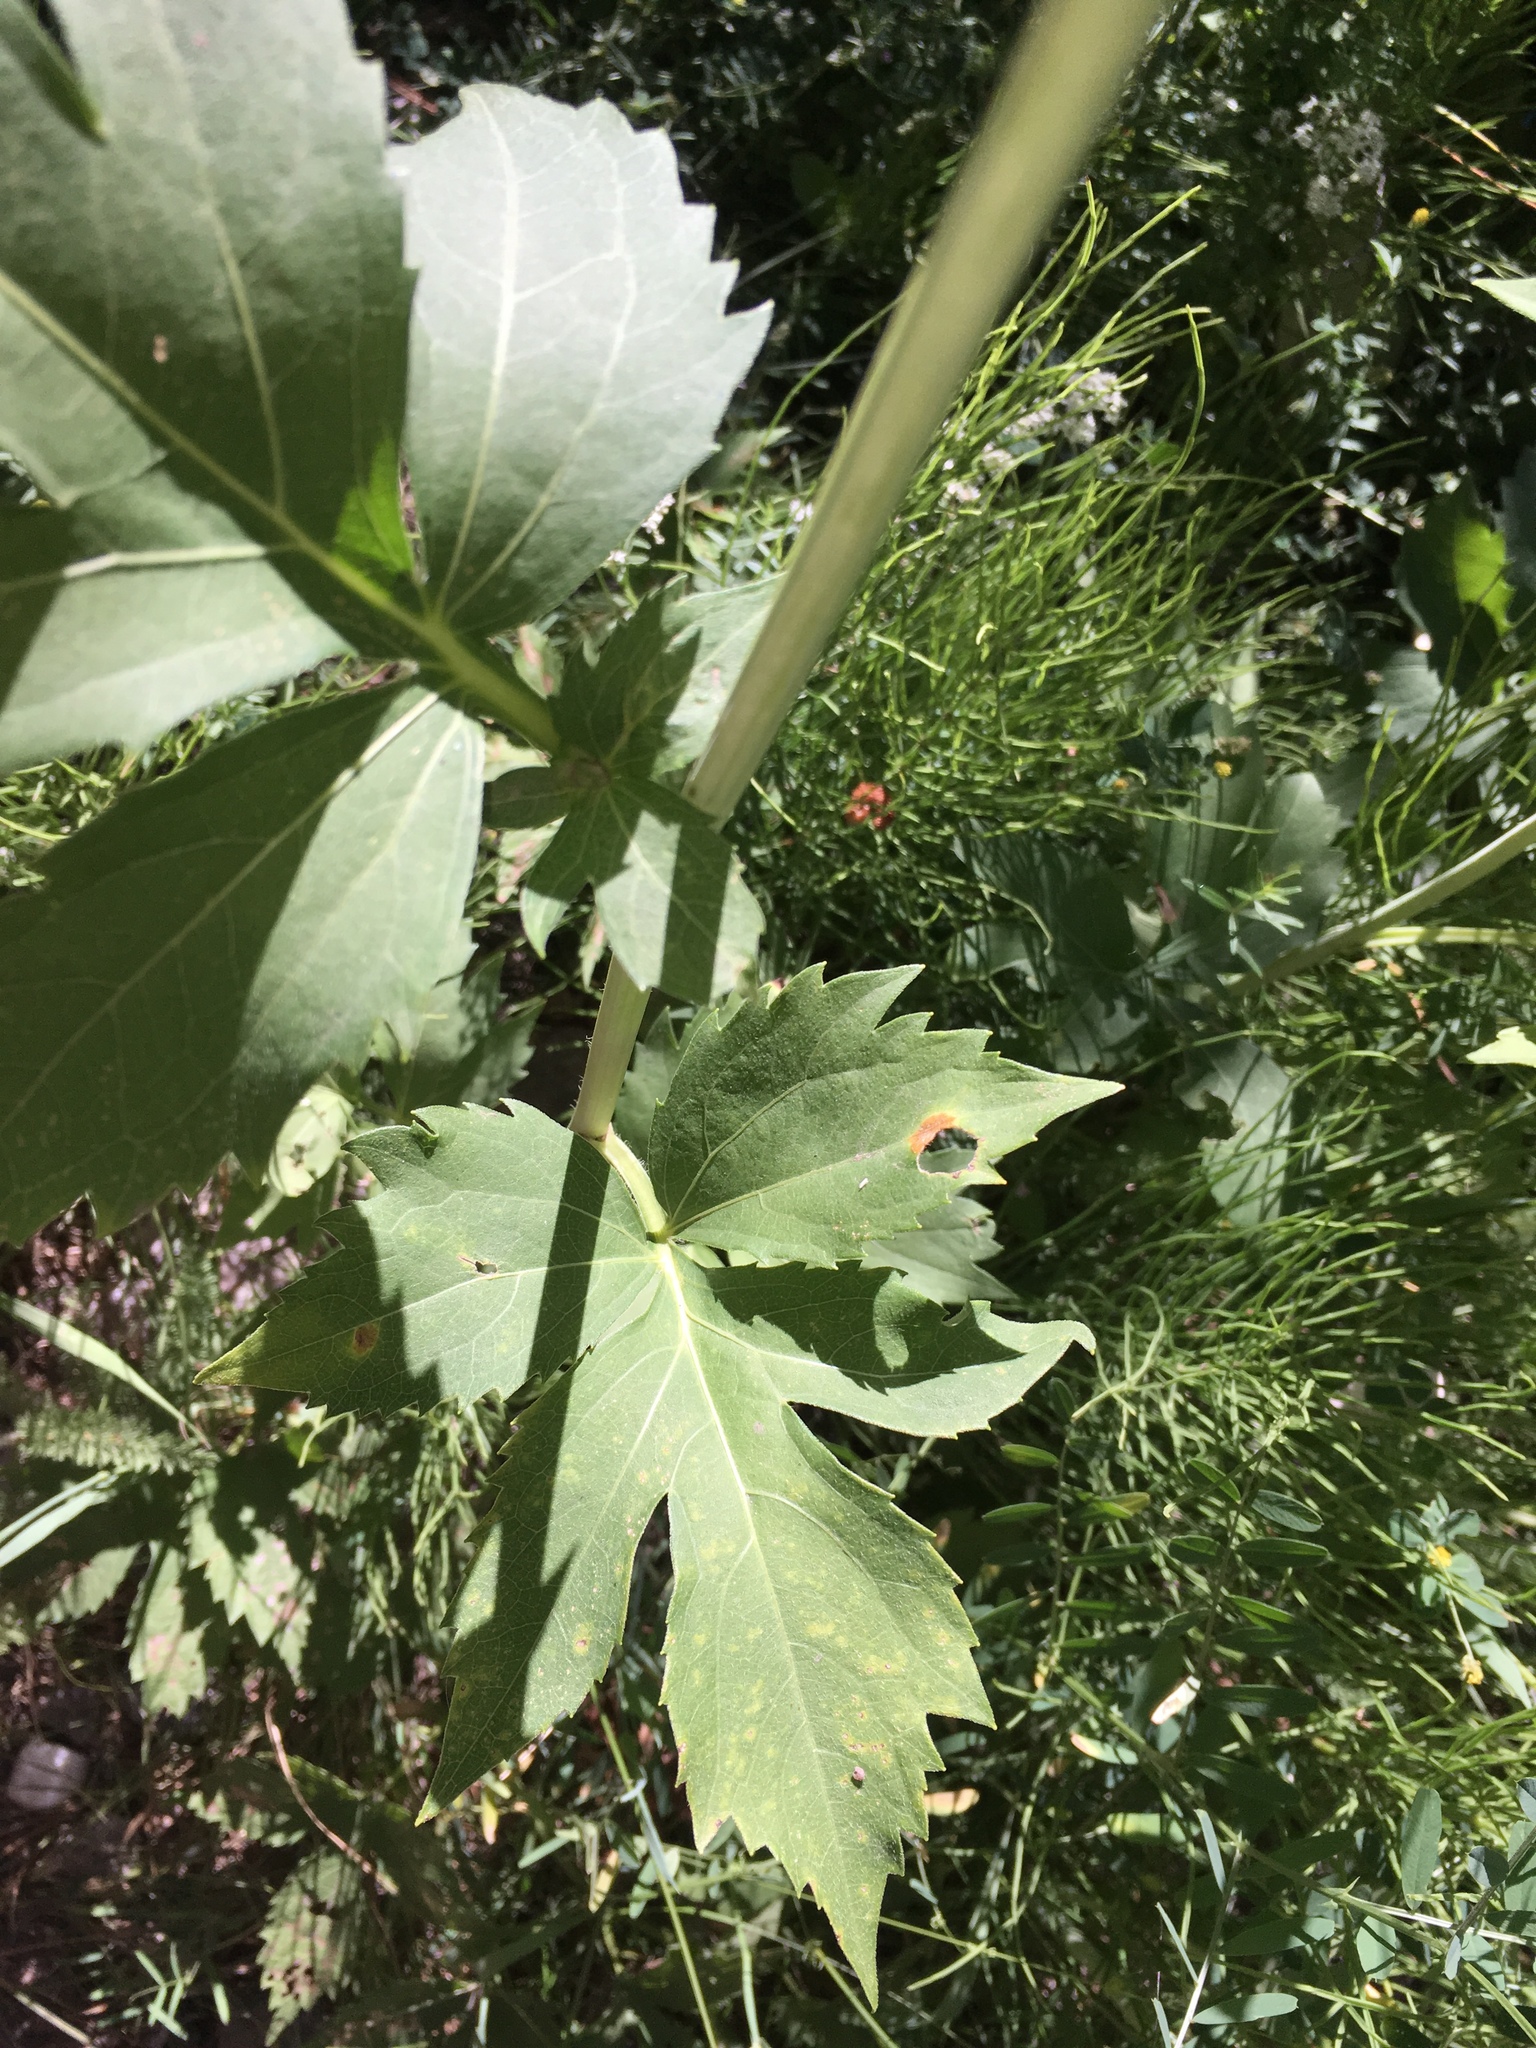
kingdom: Plantae
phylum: Tracheophyta
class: Magnoliopsida
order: Asterales
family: Asteraceae
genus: Rudbeckia
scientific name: Rudbeckia laciniata
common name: Coneflower
